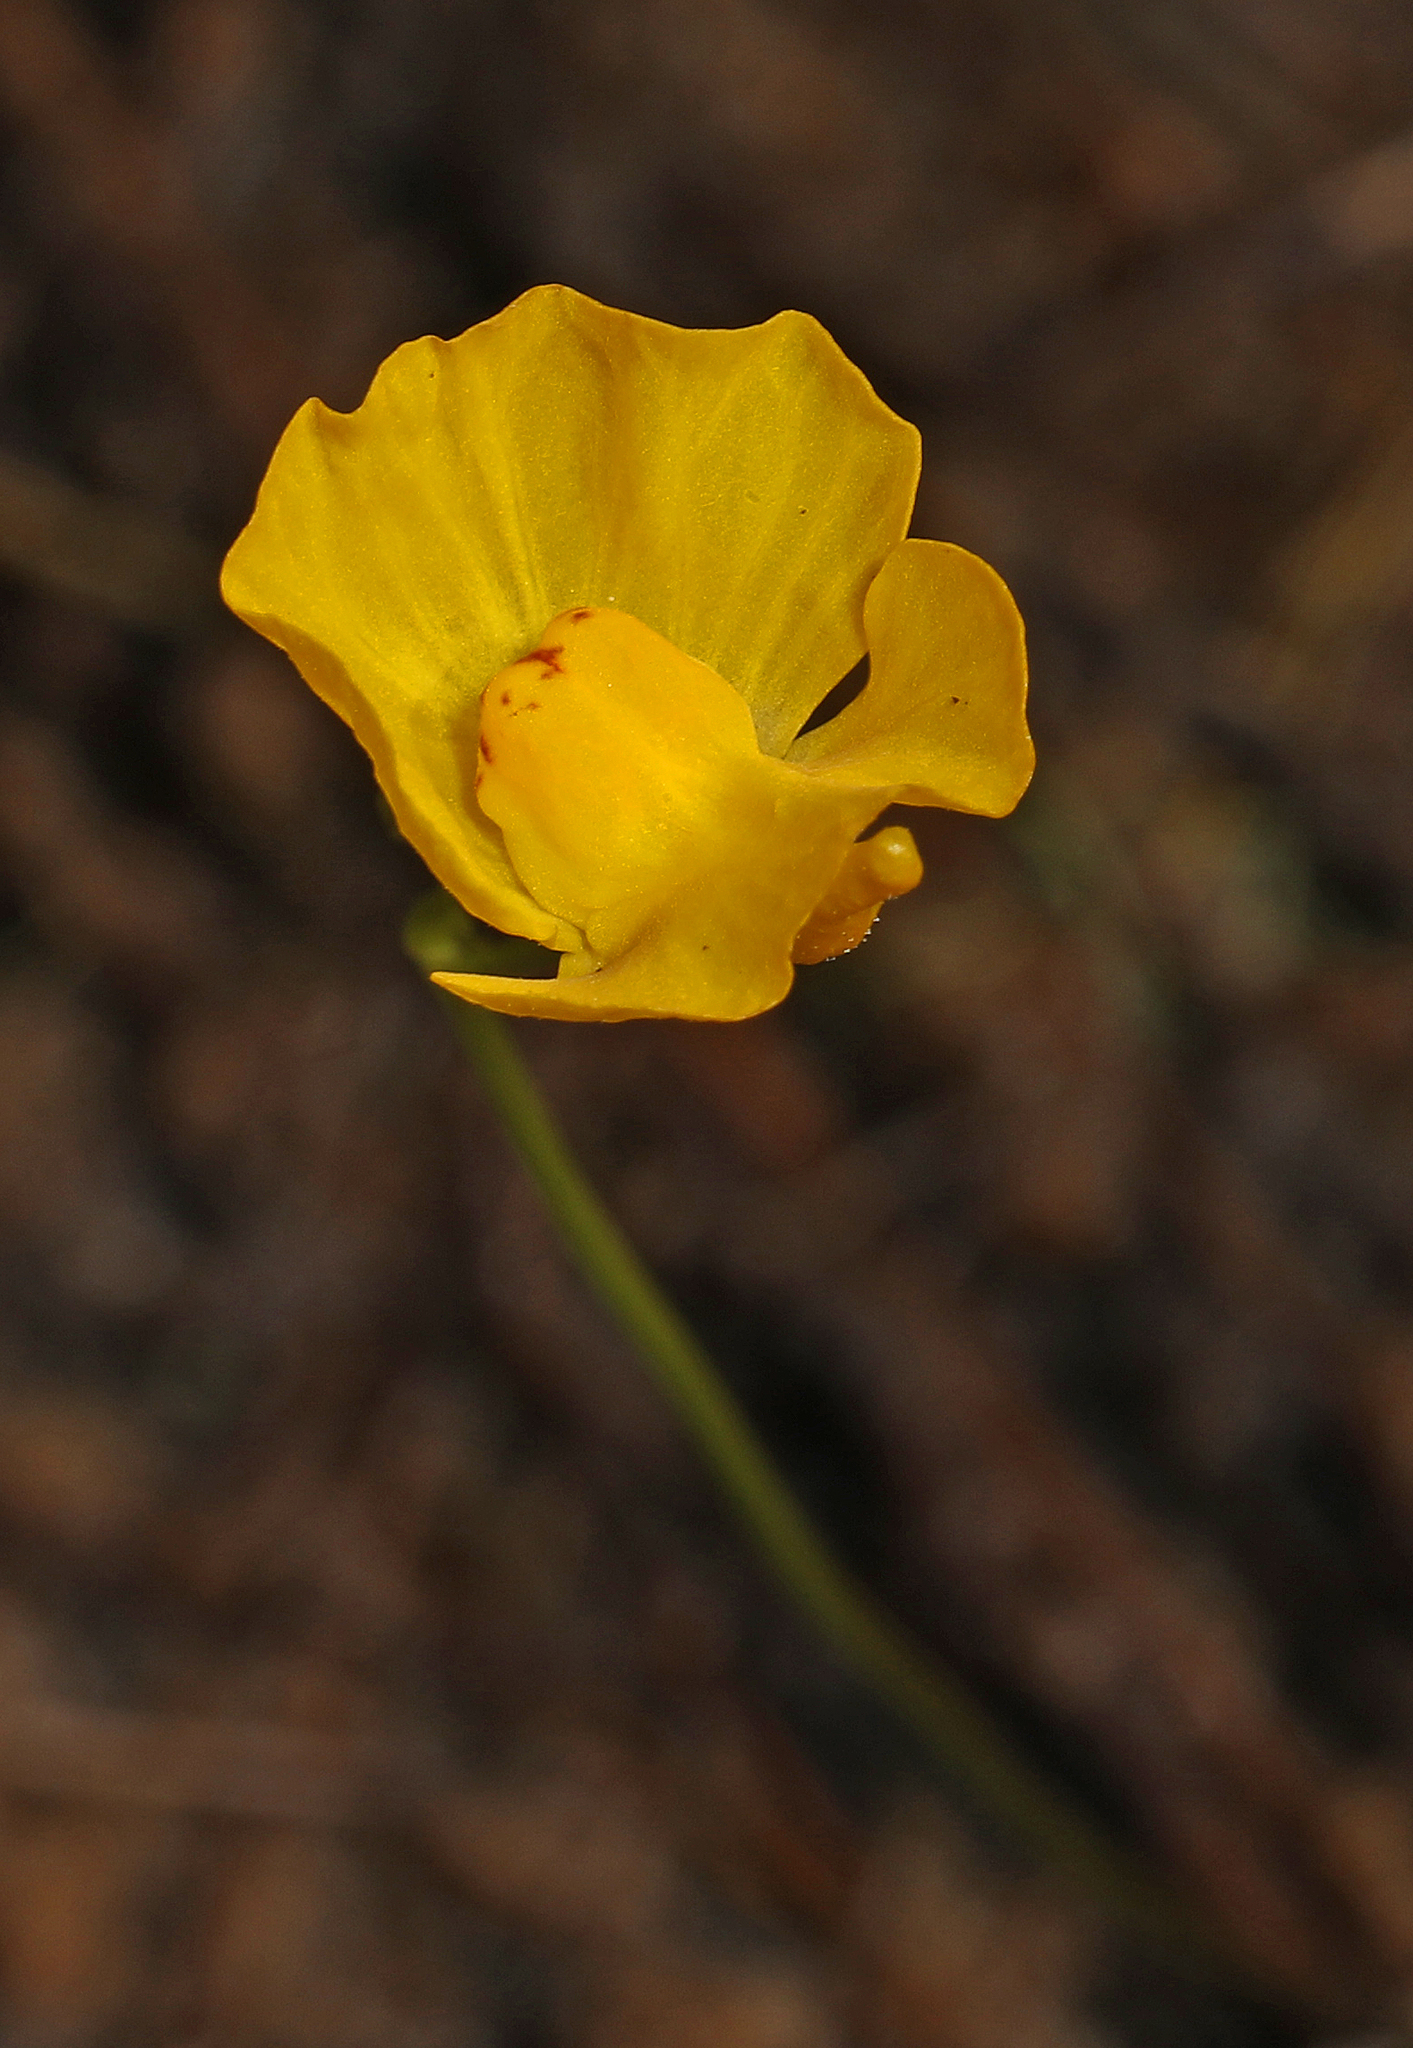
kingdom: Plantae
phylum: Tracheophyta
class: Magnoliopsida
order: Lamiales
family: Lentibulariaceae
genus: Utricularia
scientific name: Utricularia gibba
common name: Humped bladderwort
